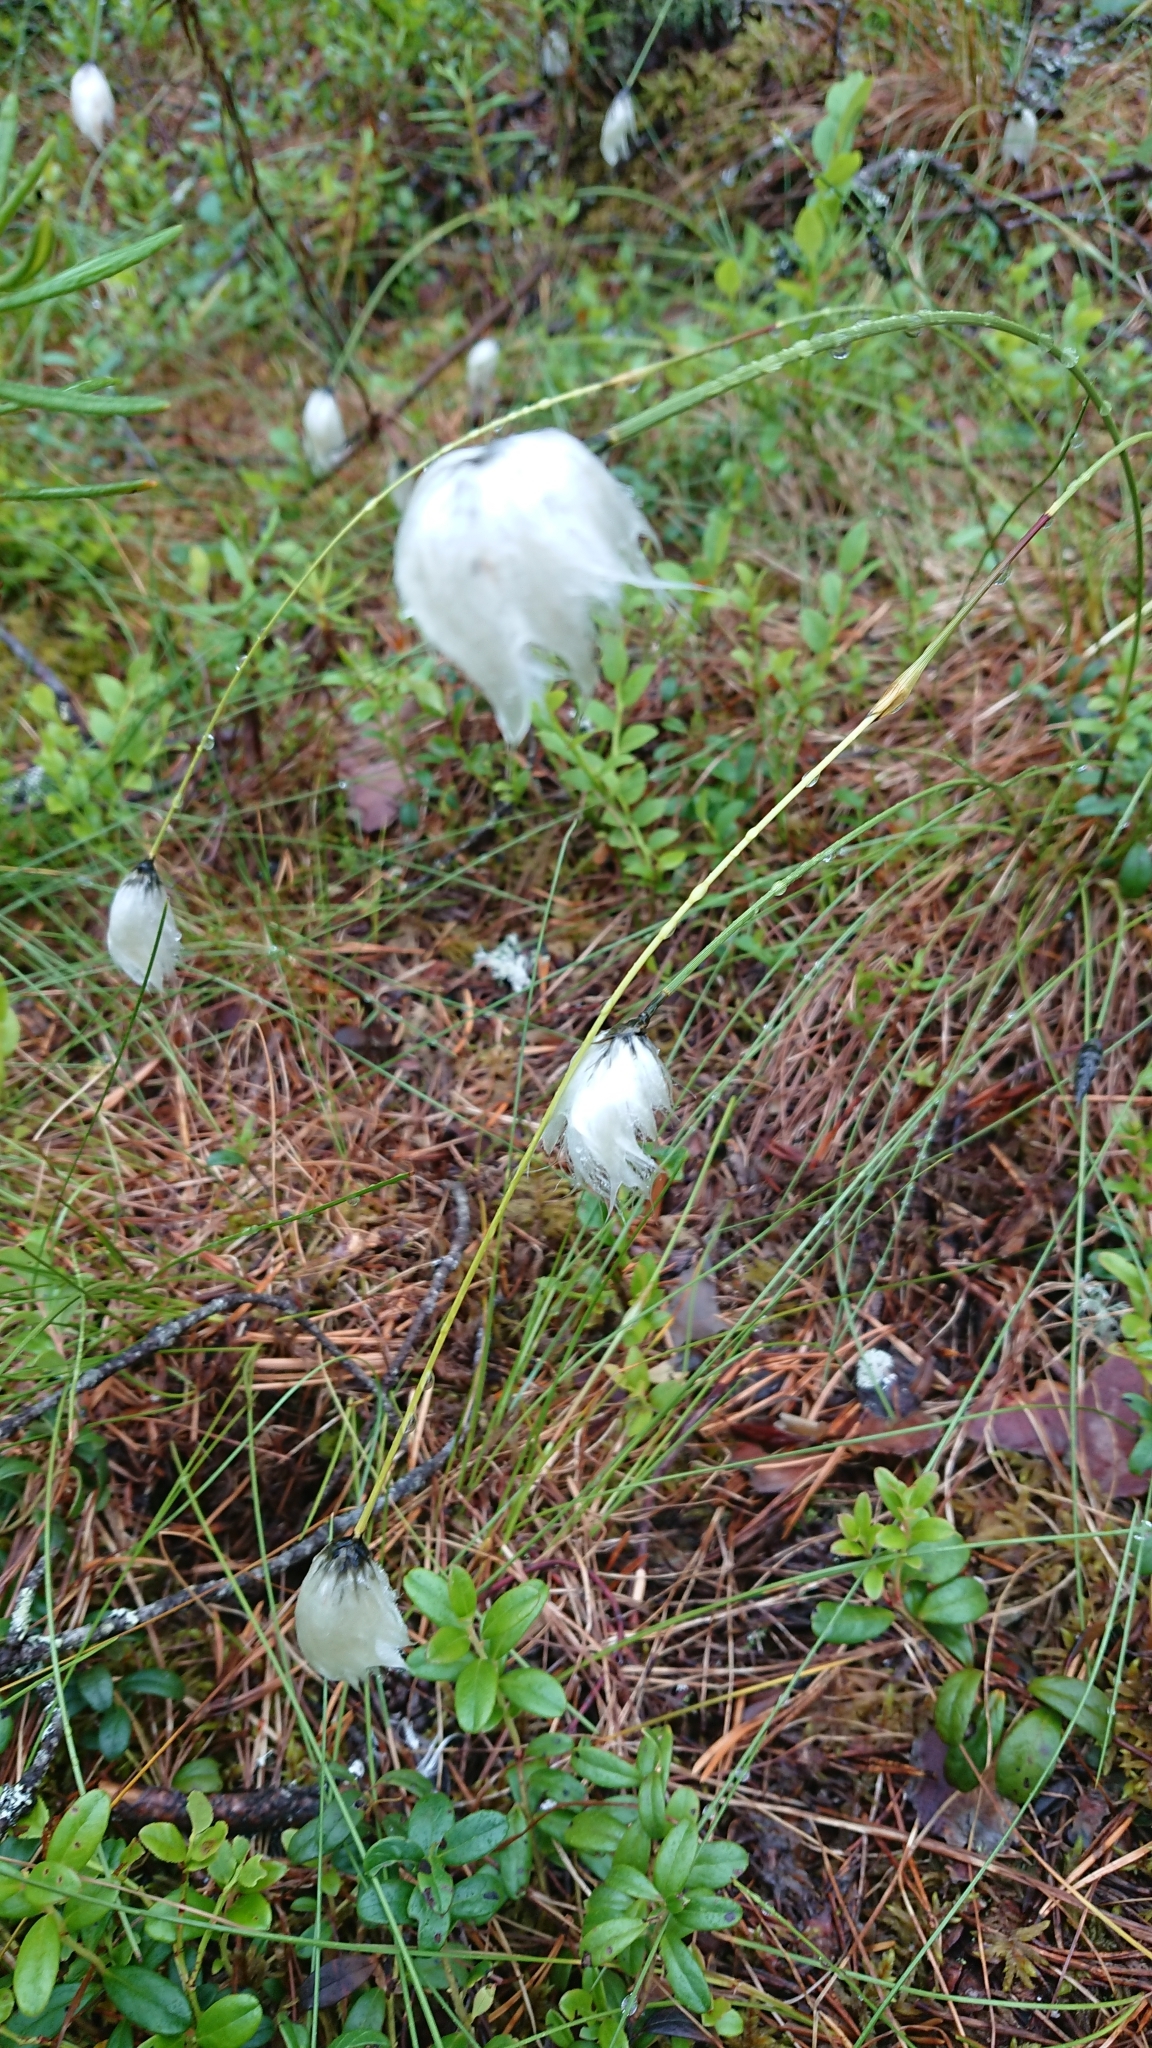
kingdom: Plantae
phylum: Tracheophyta
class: Liliopsida
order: Poales
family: Cyperaceae
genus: Eriophorum
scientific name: Eriophorum vaginatum
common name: Hare's-tail cottongrass
